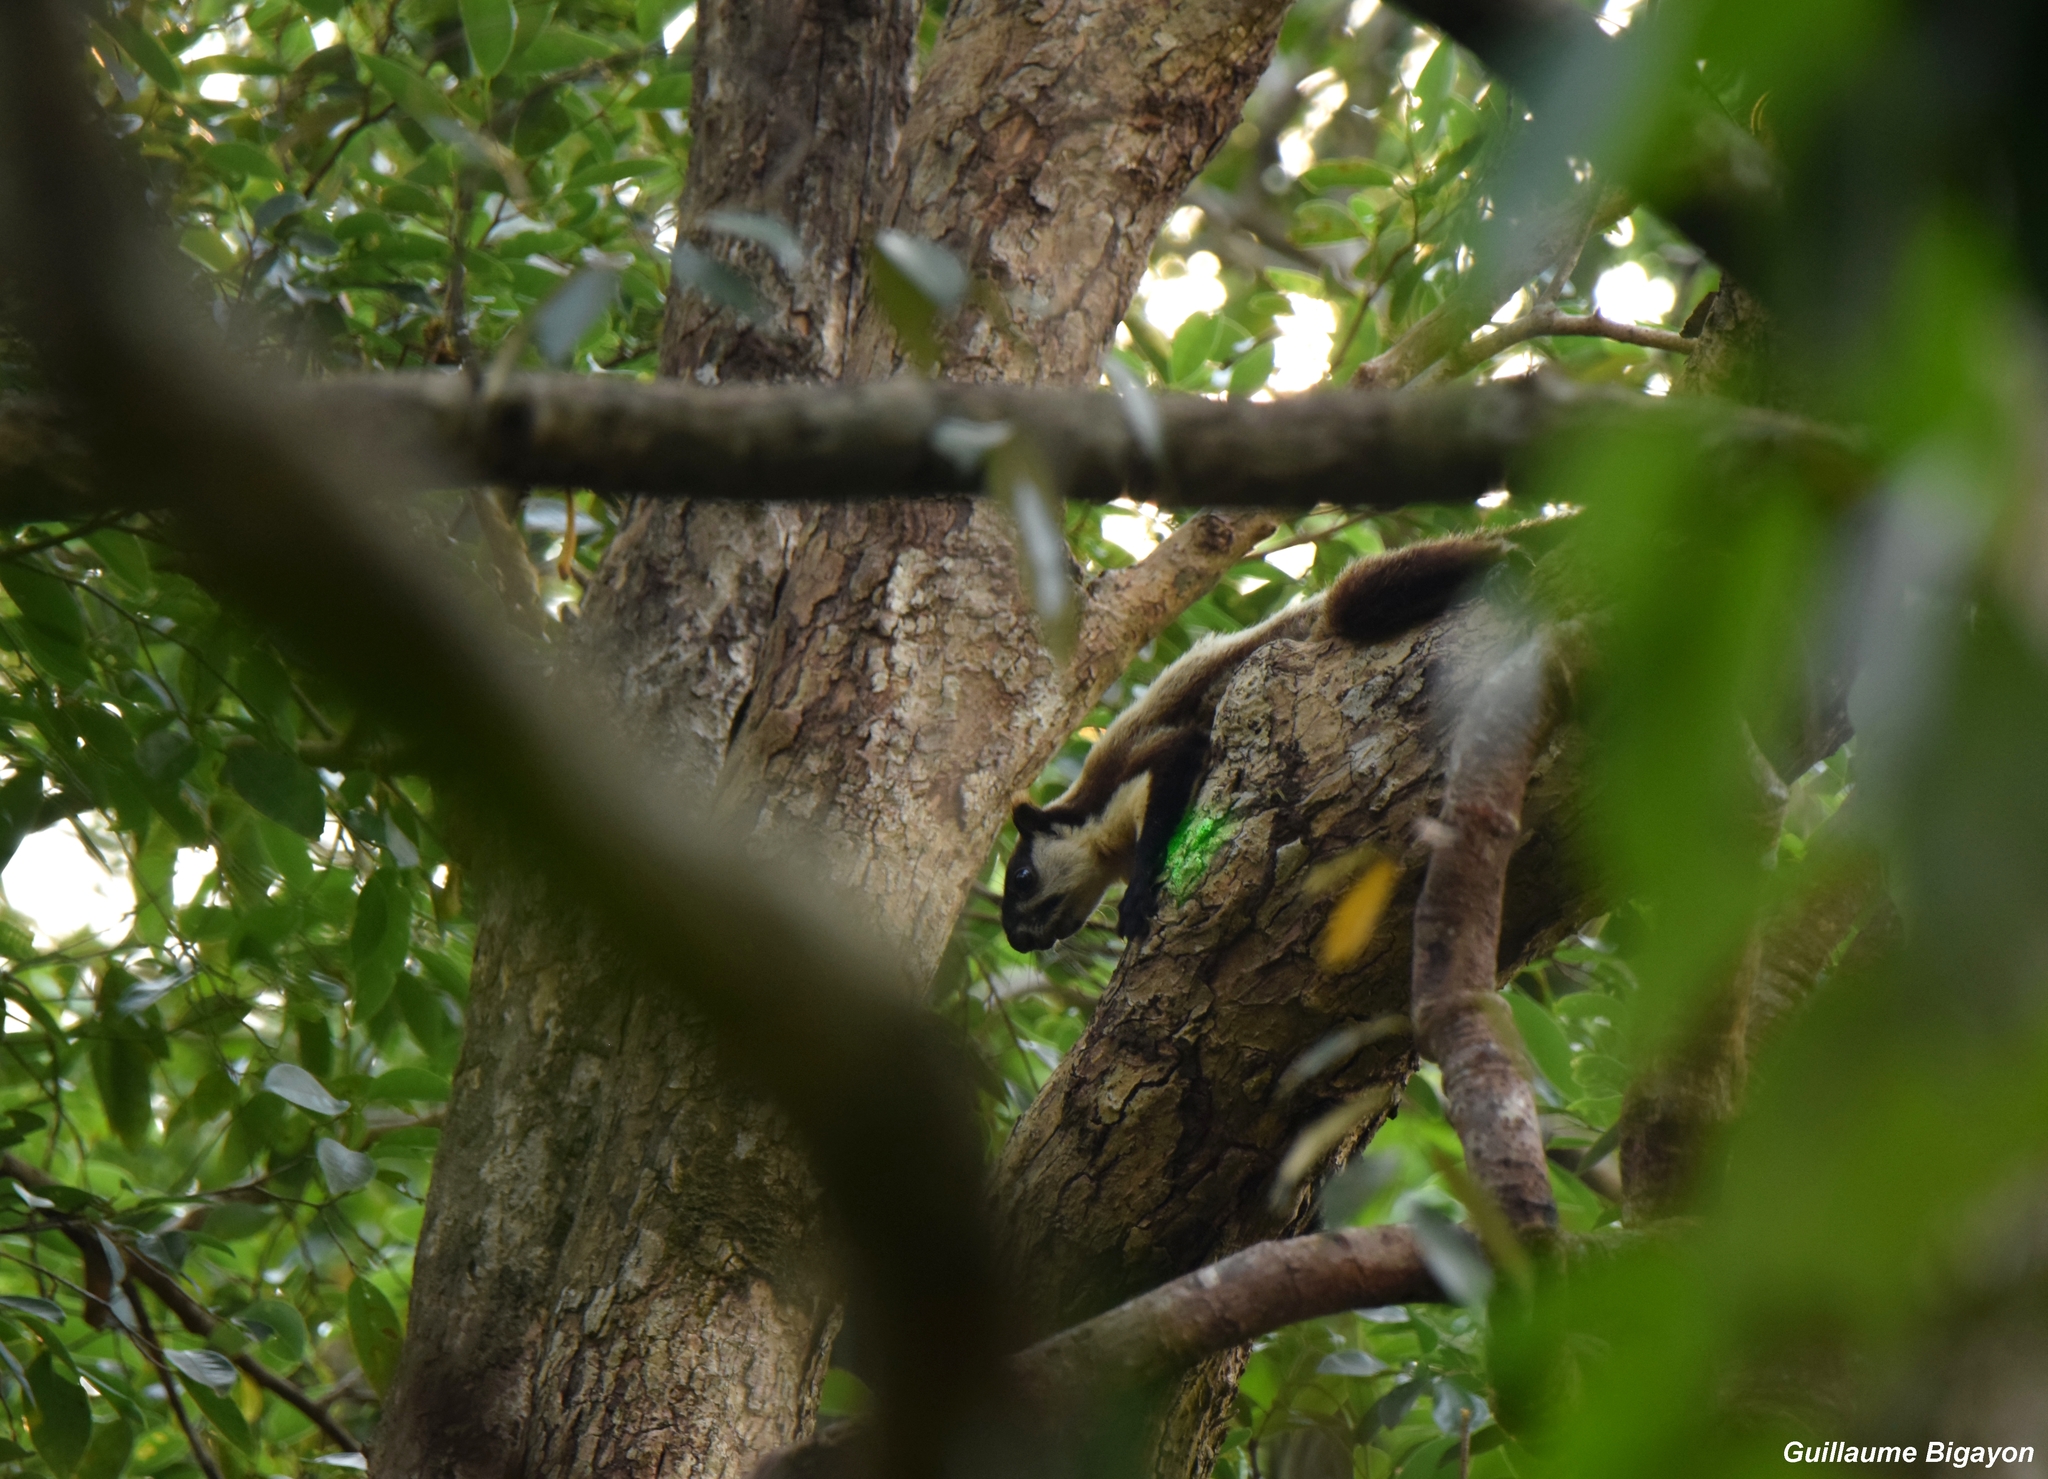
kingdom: Animalia
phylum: Chordata
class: Mammalia
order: Rodentia
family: Sciuridae
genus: Ratufa
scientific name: Ratufa bicolor
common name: Black giant squirrel
